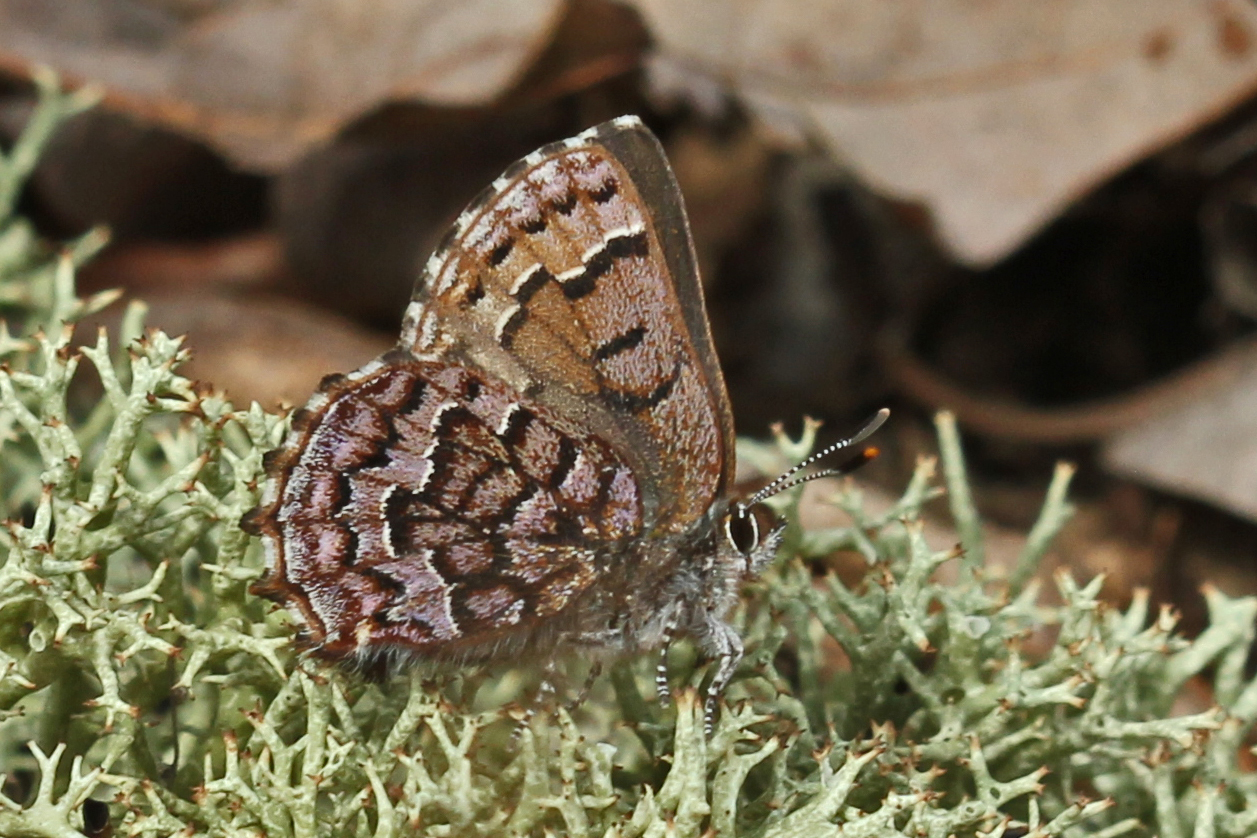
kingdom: Animalia
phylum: Arthropoda
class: Insecta
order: Lepidoptera
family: Lycaenidae
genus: Incisalia
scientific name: Incisalia niphon
